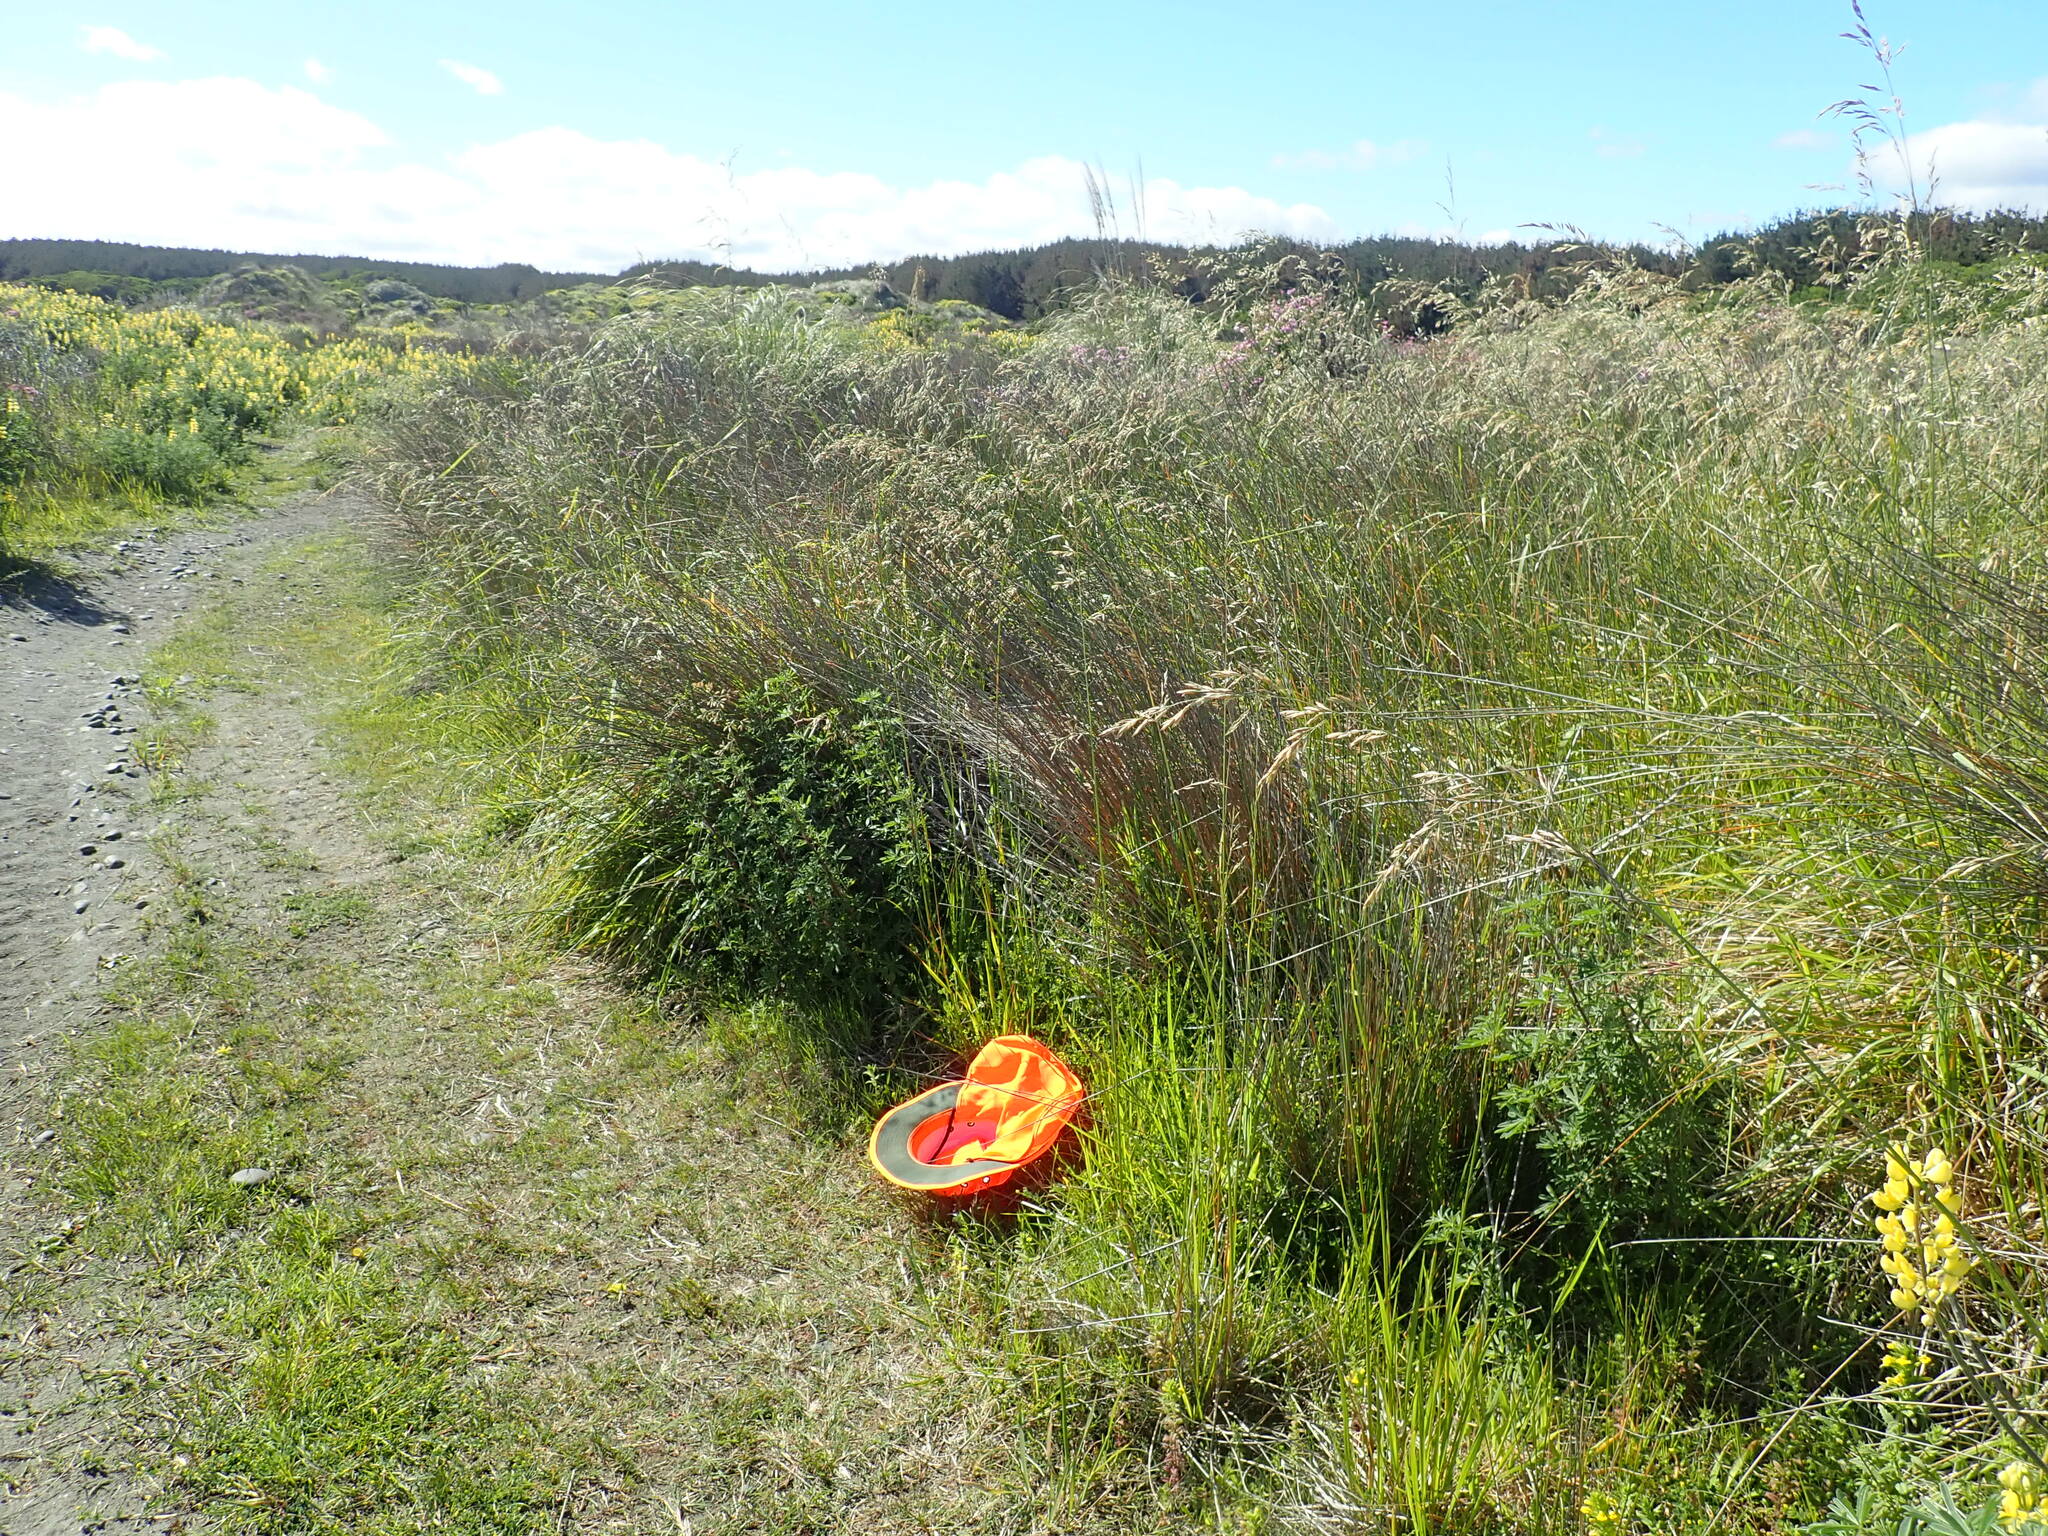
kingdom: Plantae
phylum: Tracheophyta
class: Magnoliopsida
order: Fabales
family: Fabaceae
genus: Medicago
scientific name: Medicago lupulina
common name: Black medick
